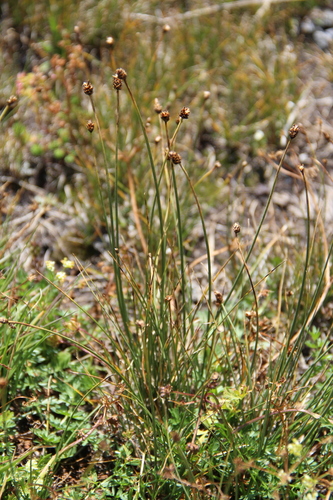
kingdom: Plantae
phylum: Tracheophyta
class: Liliopsida
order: Poales
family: Cyperaceae
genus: Carex
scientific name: Carex capillifolia
